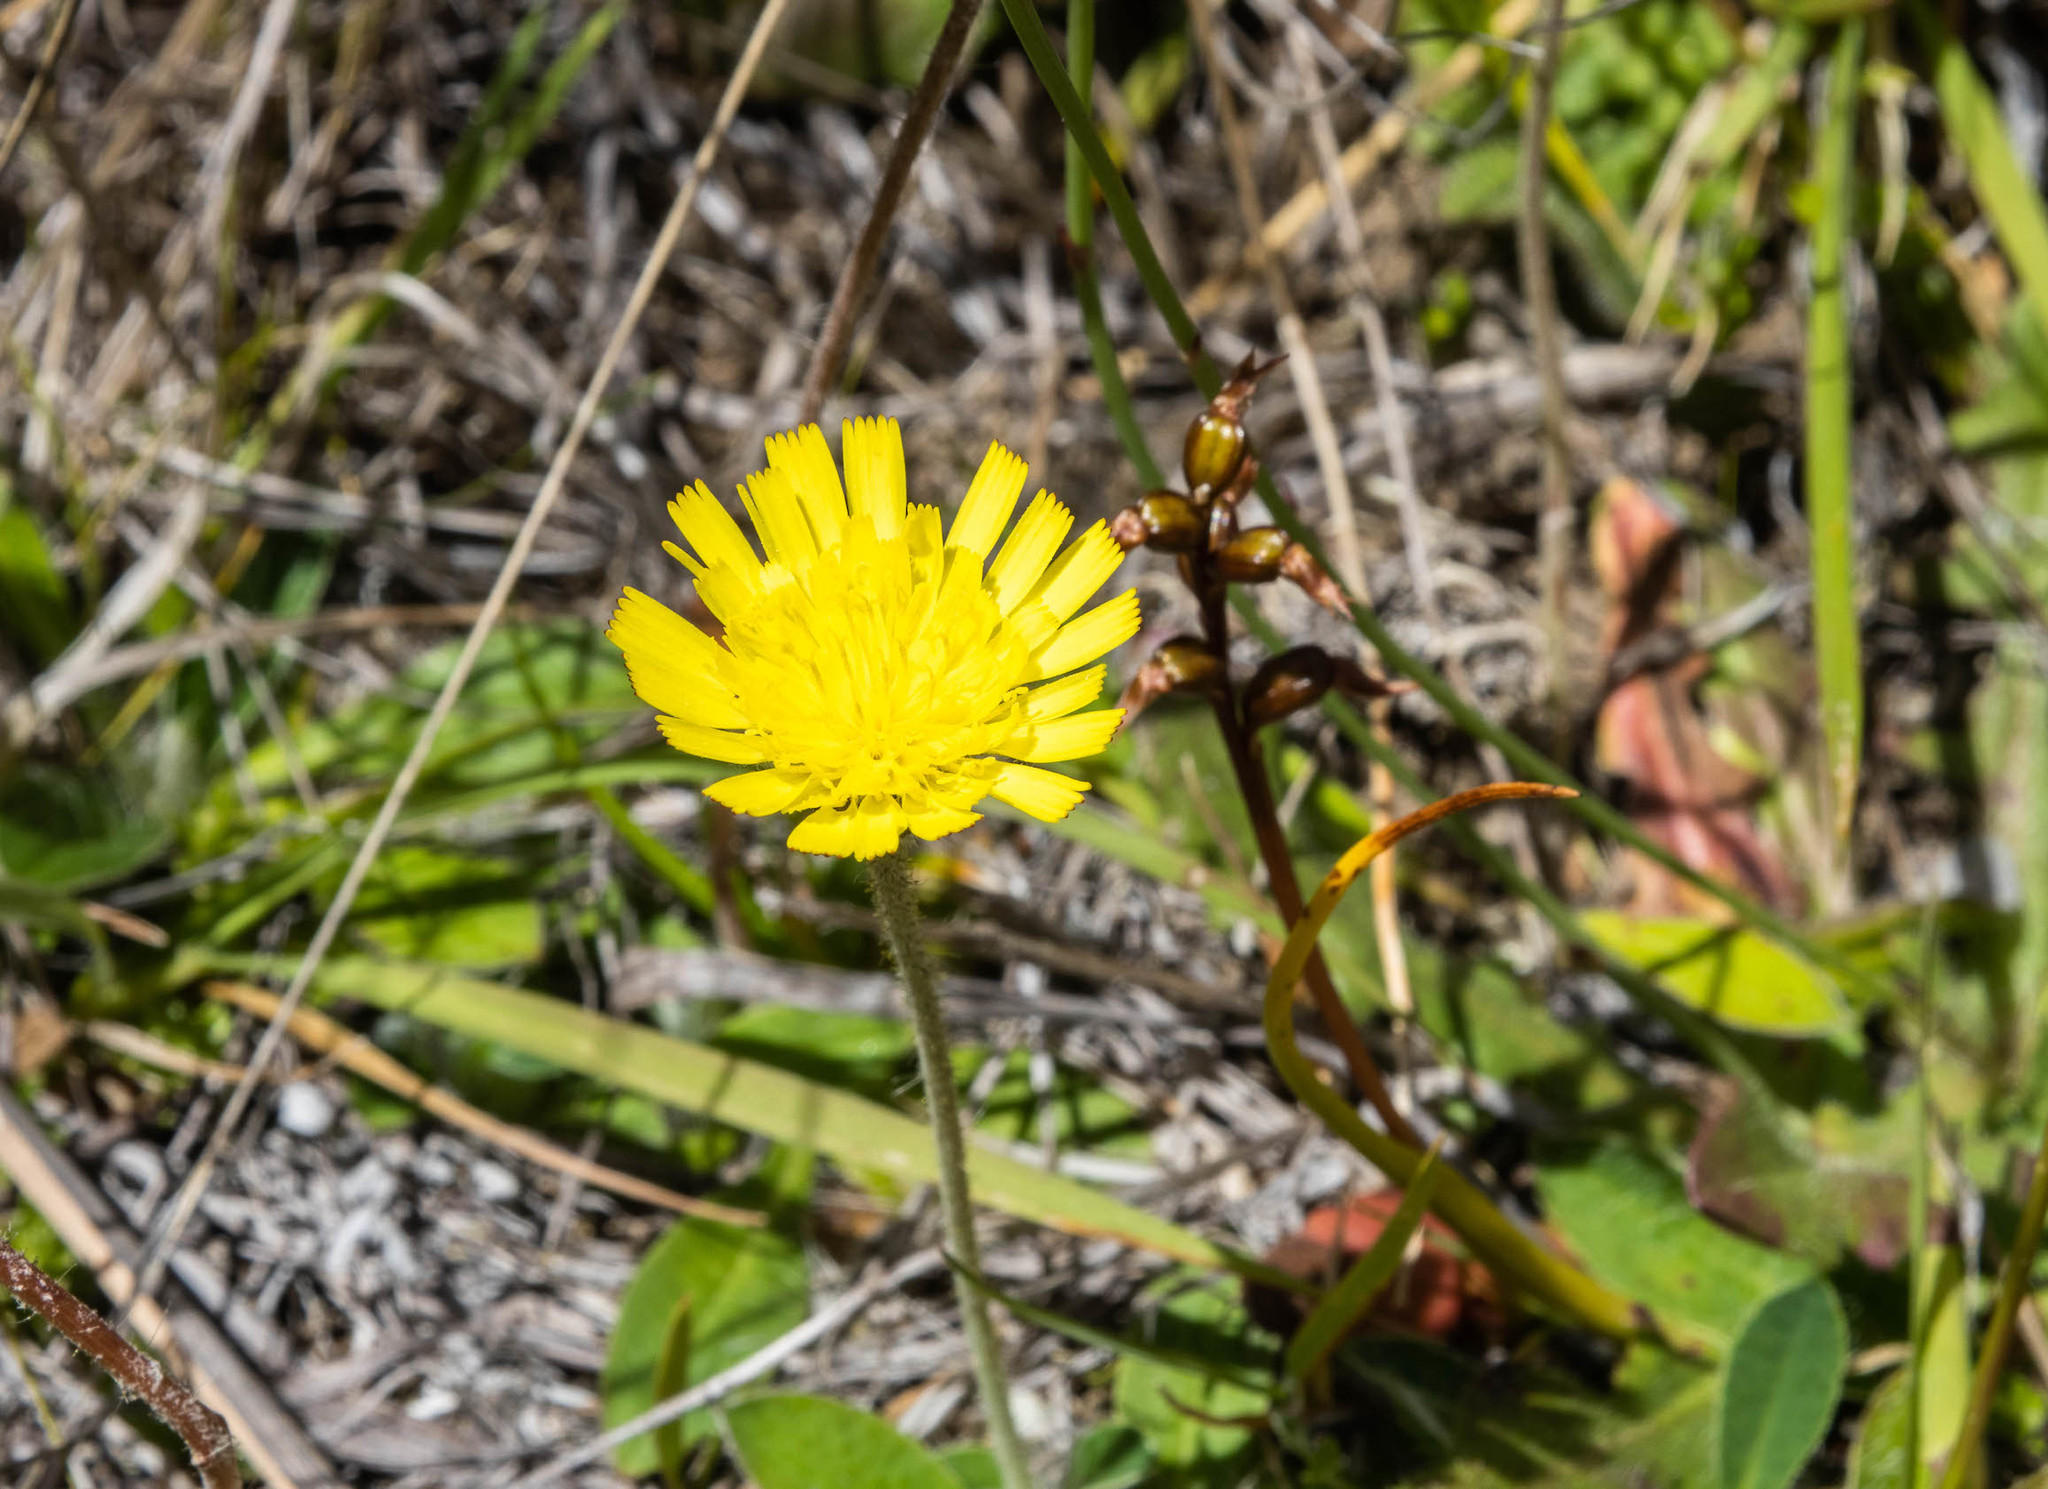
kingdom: Plantae
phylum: Tracheophyta
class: Magnoliopsida
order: Asterales
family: Asteraceae
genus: Pilosella
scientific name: Pilosella officinarum
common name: Mouse-ear hawkweed
